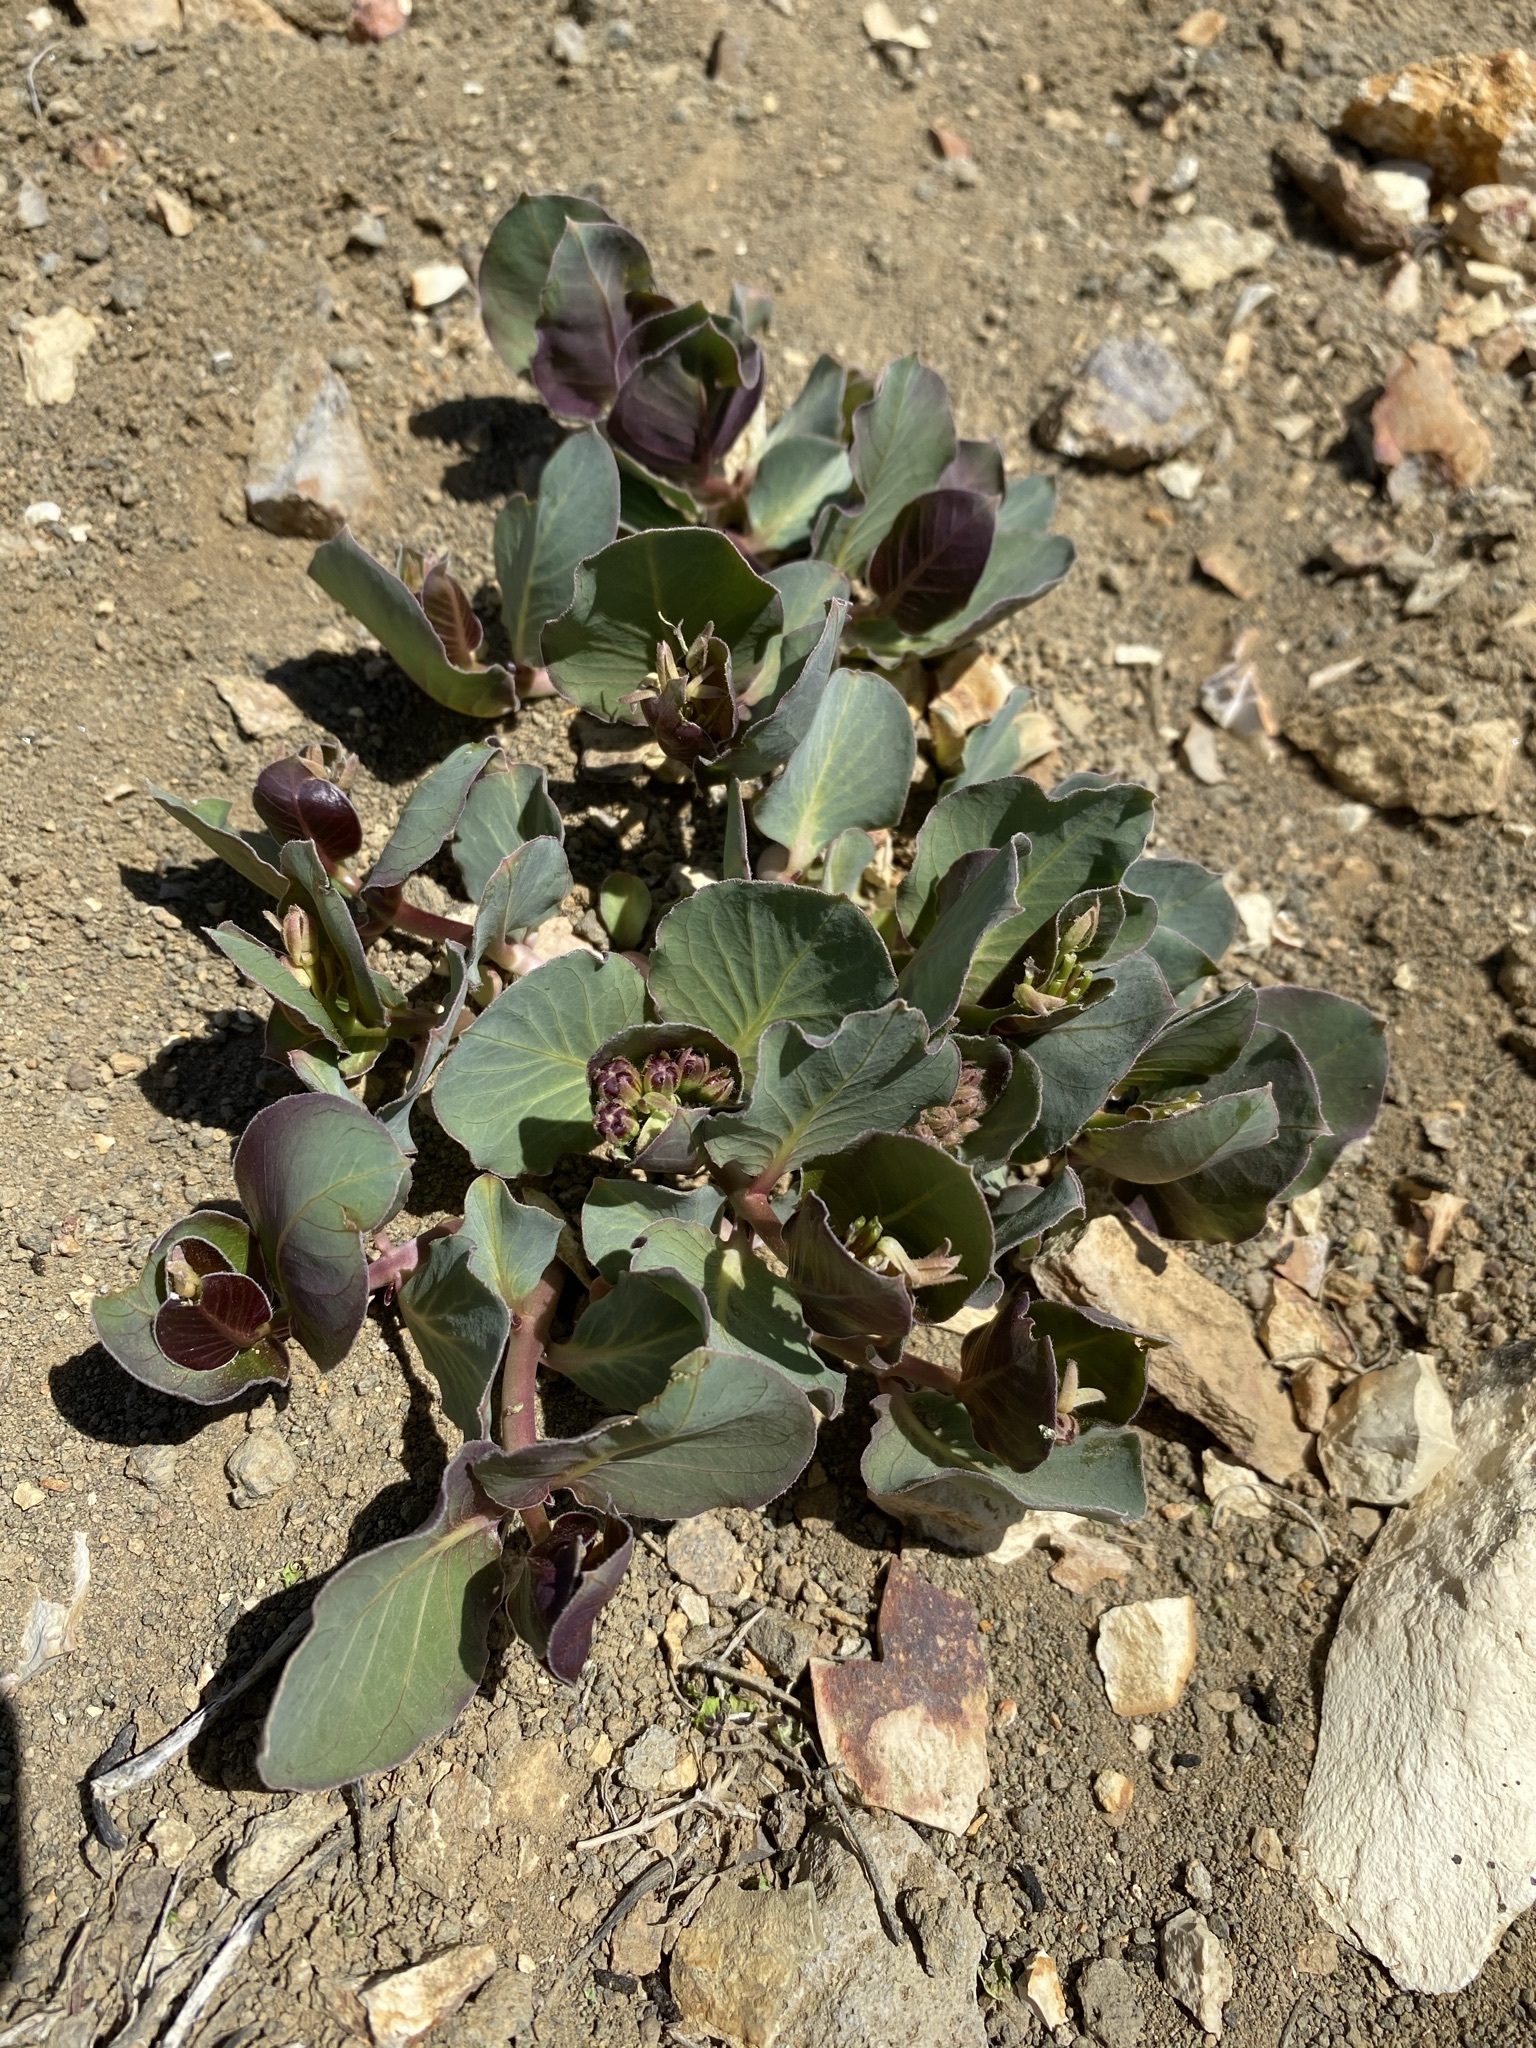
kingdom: Plantae
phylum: Tracheophyta
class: Magnoliopsida
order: Gentianales
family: Apocynaceae
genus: Asclepias
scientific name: Asclepias cryptoceras
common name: Humboldt mountains milkweed
